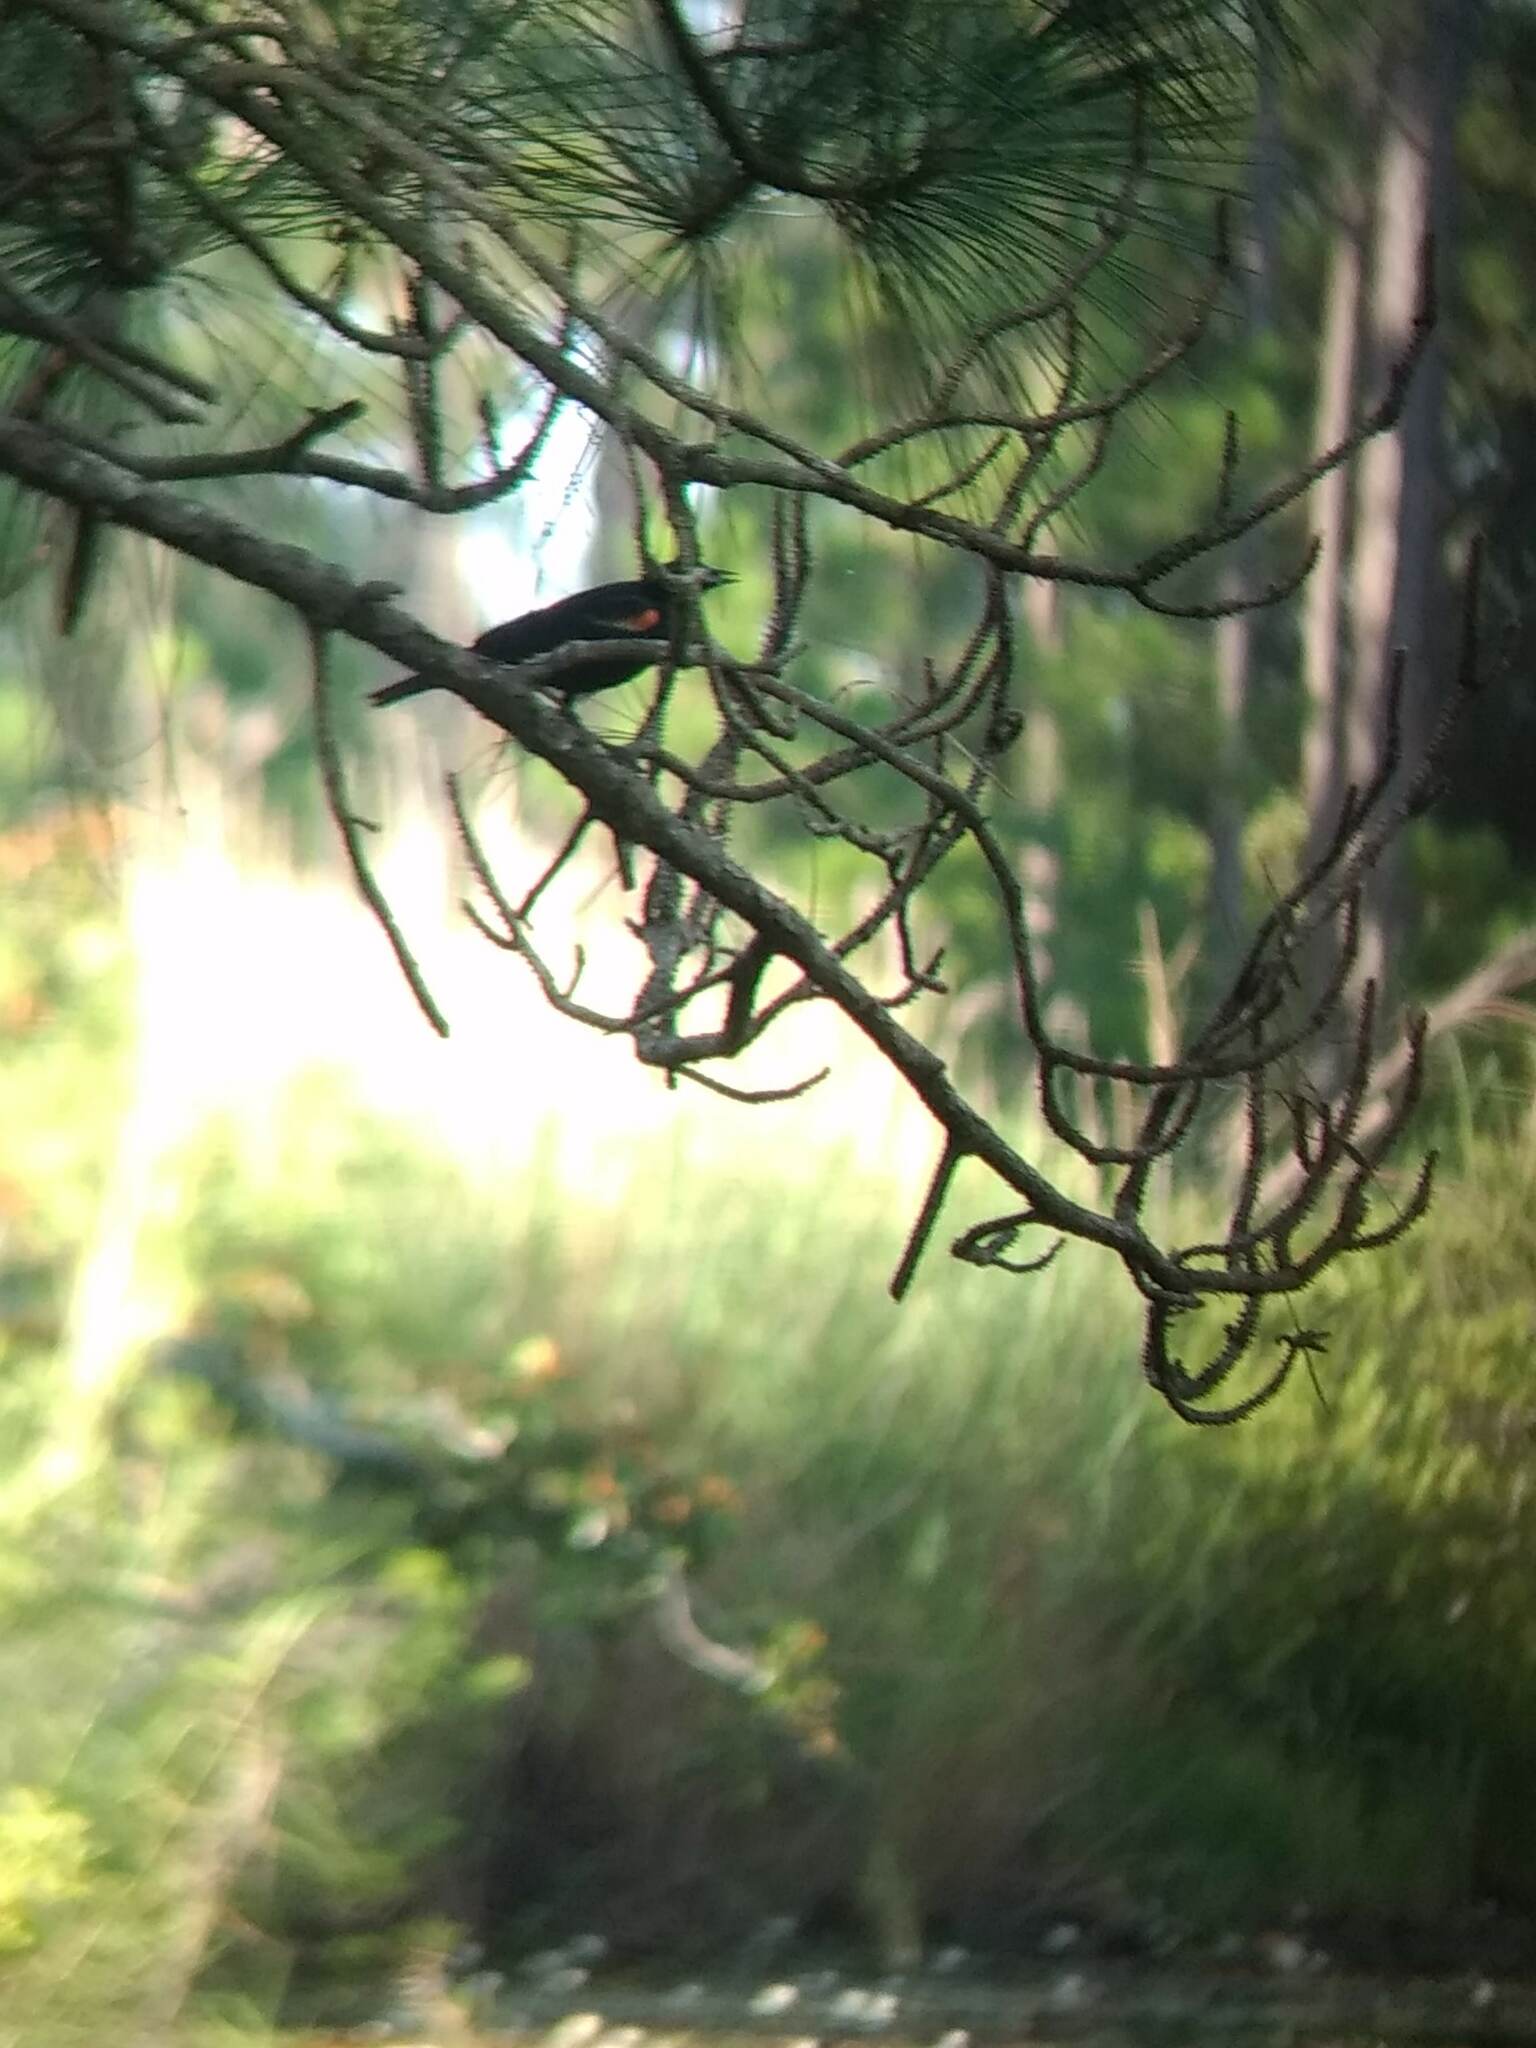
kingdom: Animalia
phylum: Chordata
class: Aves
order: Passeriformes
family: Icteridae
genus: Agelaius
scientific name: Agelaius phoeniceus
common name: Red-winged blackbird
